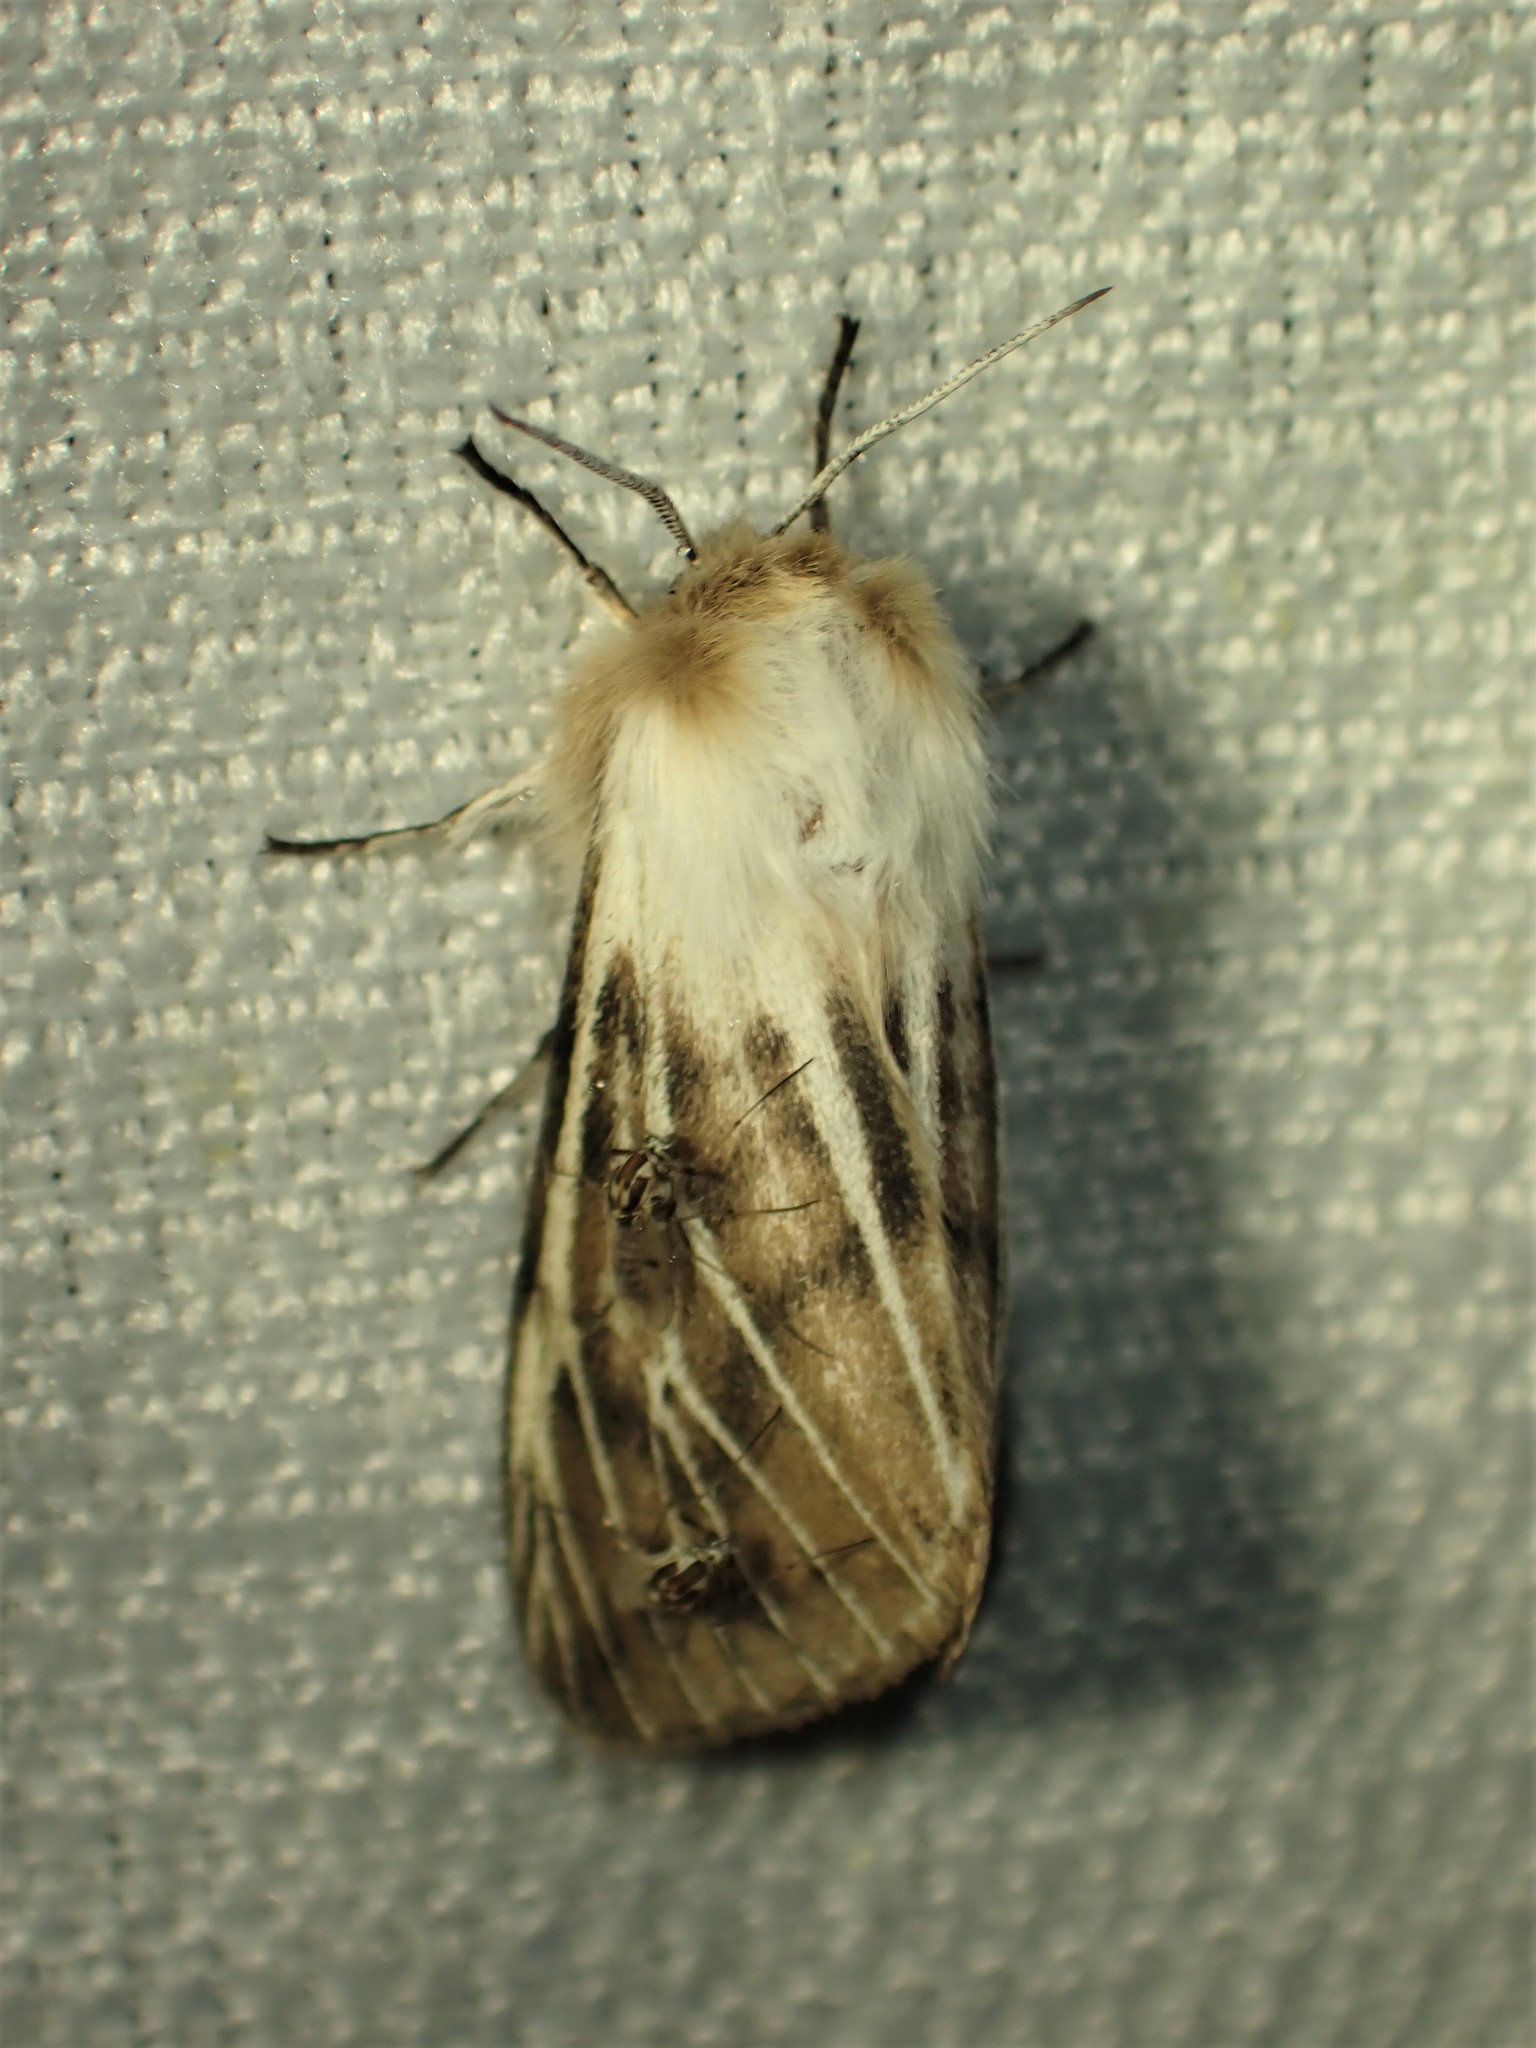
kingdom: Animalia
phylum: Arthropoda
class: Insecta
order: Lepidoptera
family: Erebidae
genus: Spilosoma
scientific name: Spilosoma dubia
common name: Dubious tiger moth
